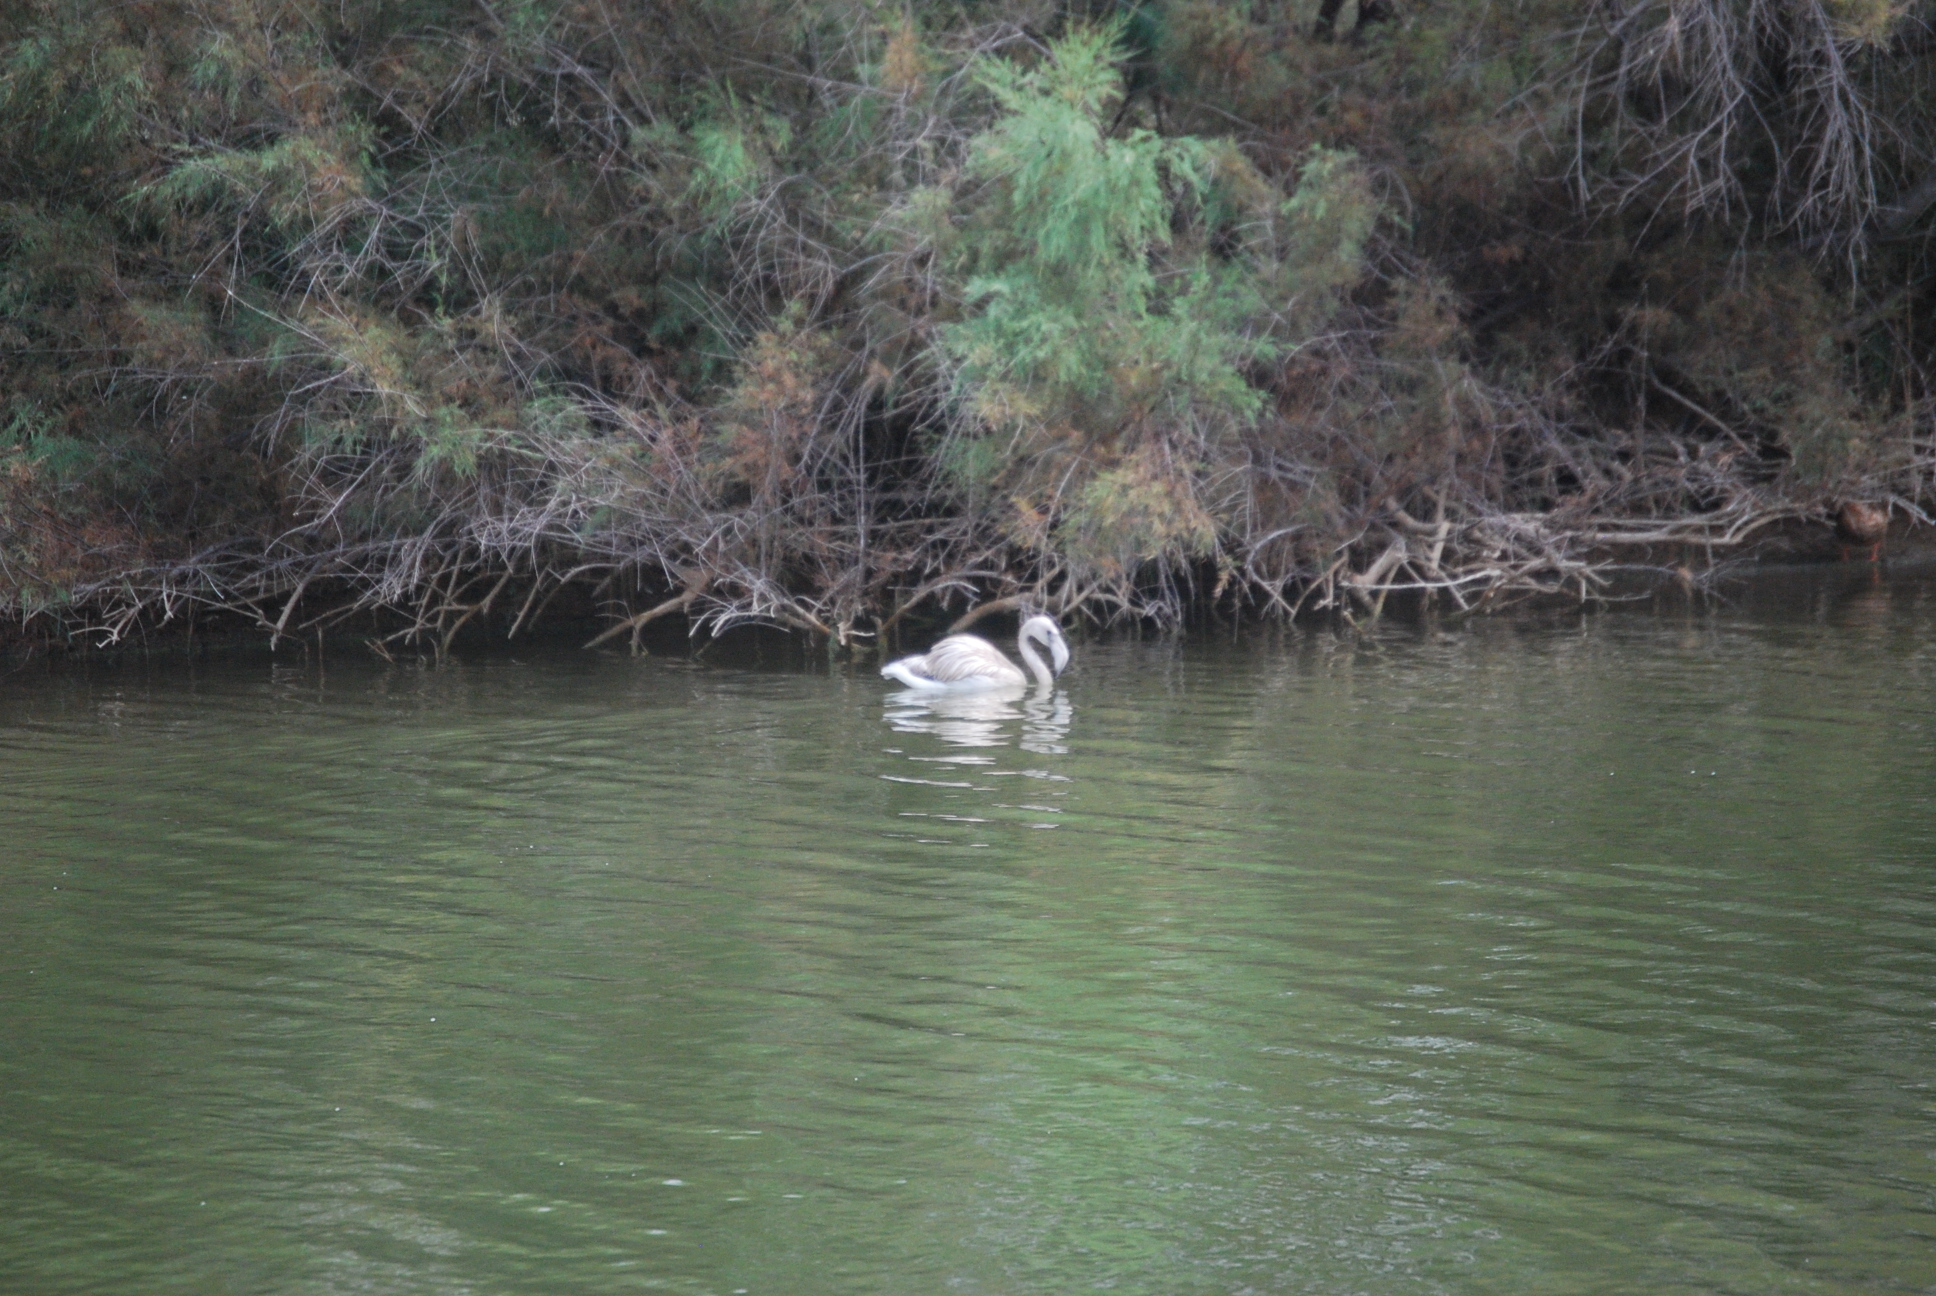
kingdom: Animalia
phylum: Chordata
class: Aves
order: Phoenicopteriformes
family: Phoenicopteridae
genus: Phoenicopterus
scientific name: Phoenicopterus roseus
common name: Greater flamingo
